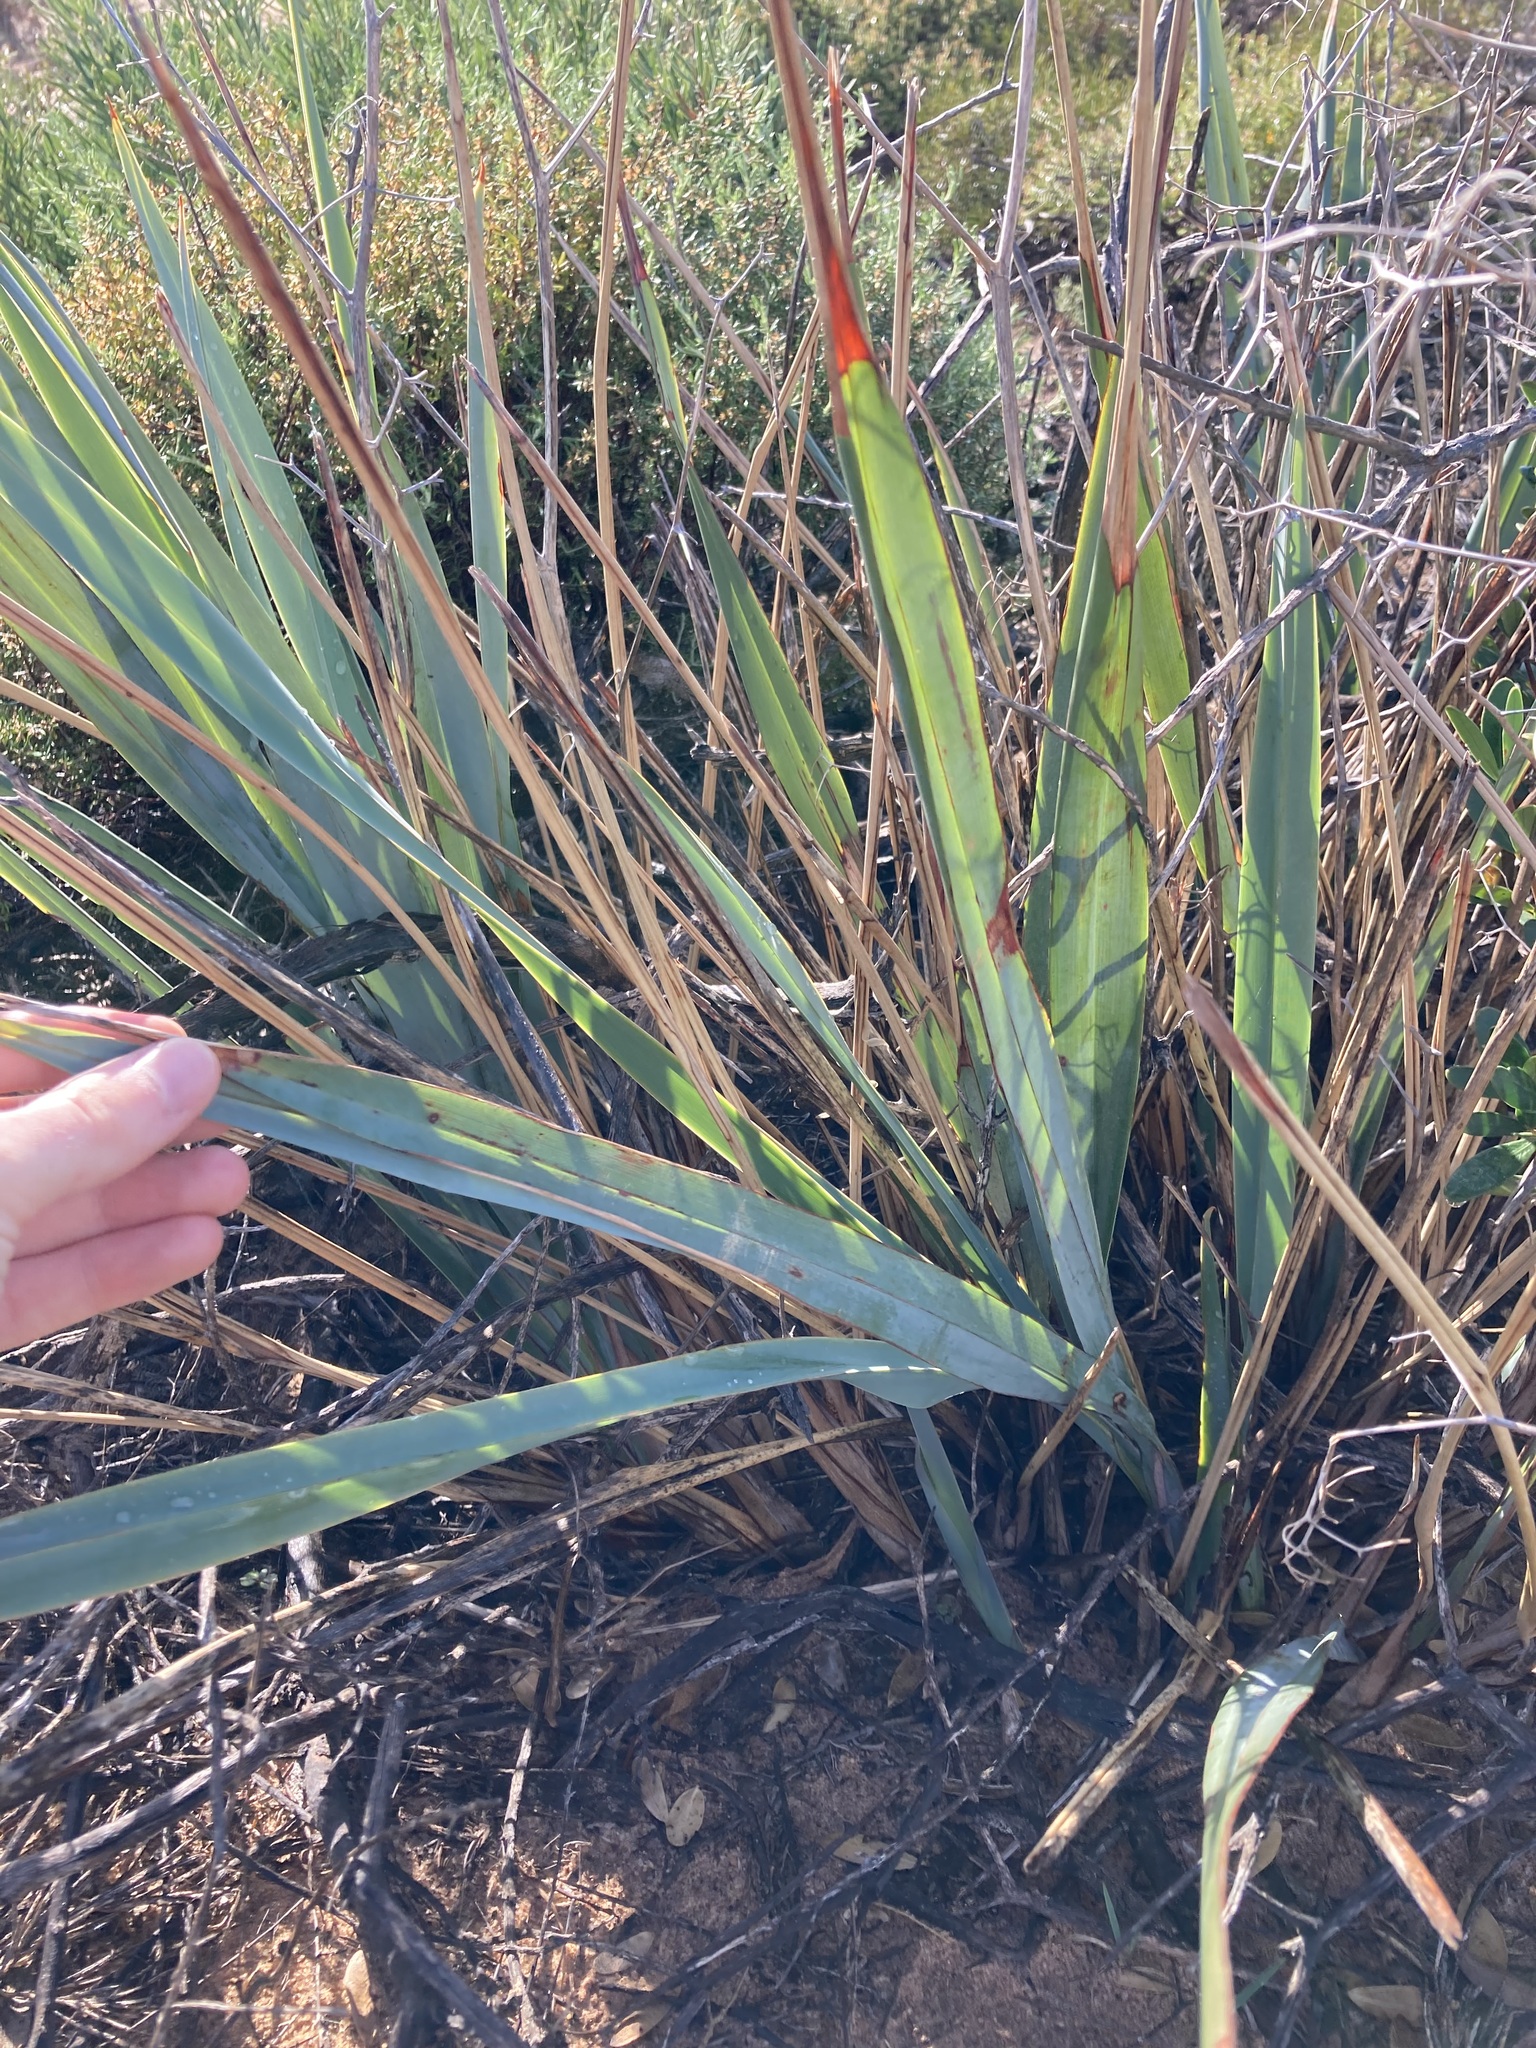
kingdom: Plantae
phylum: Tracheophyta
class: Liliopsida
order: Asparagales
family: Asphodelaceae
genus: Dianella
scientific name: Dianella revoluta
